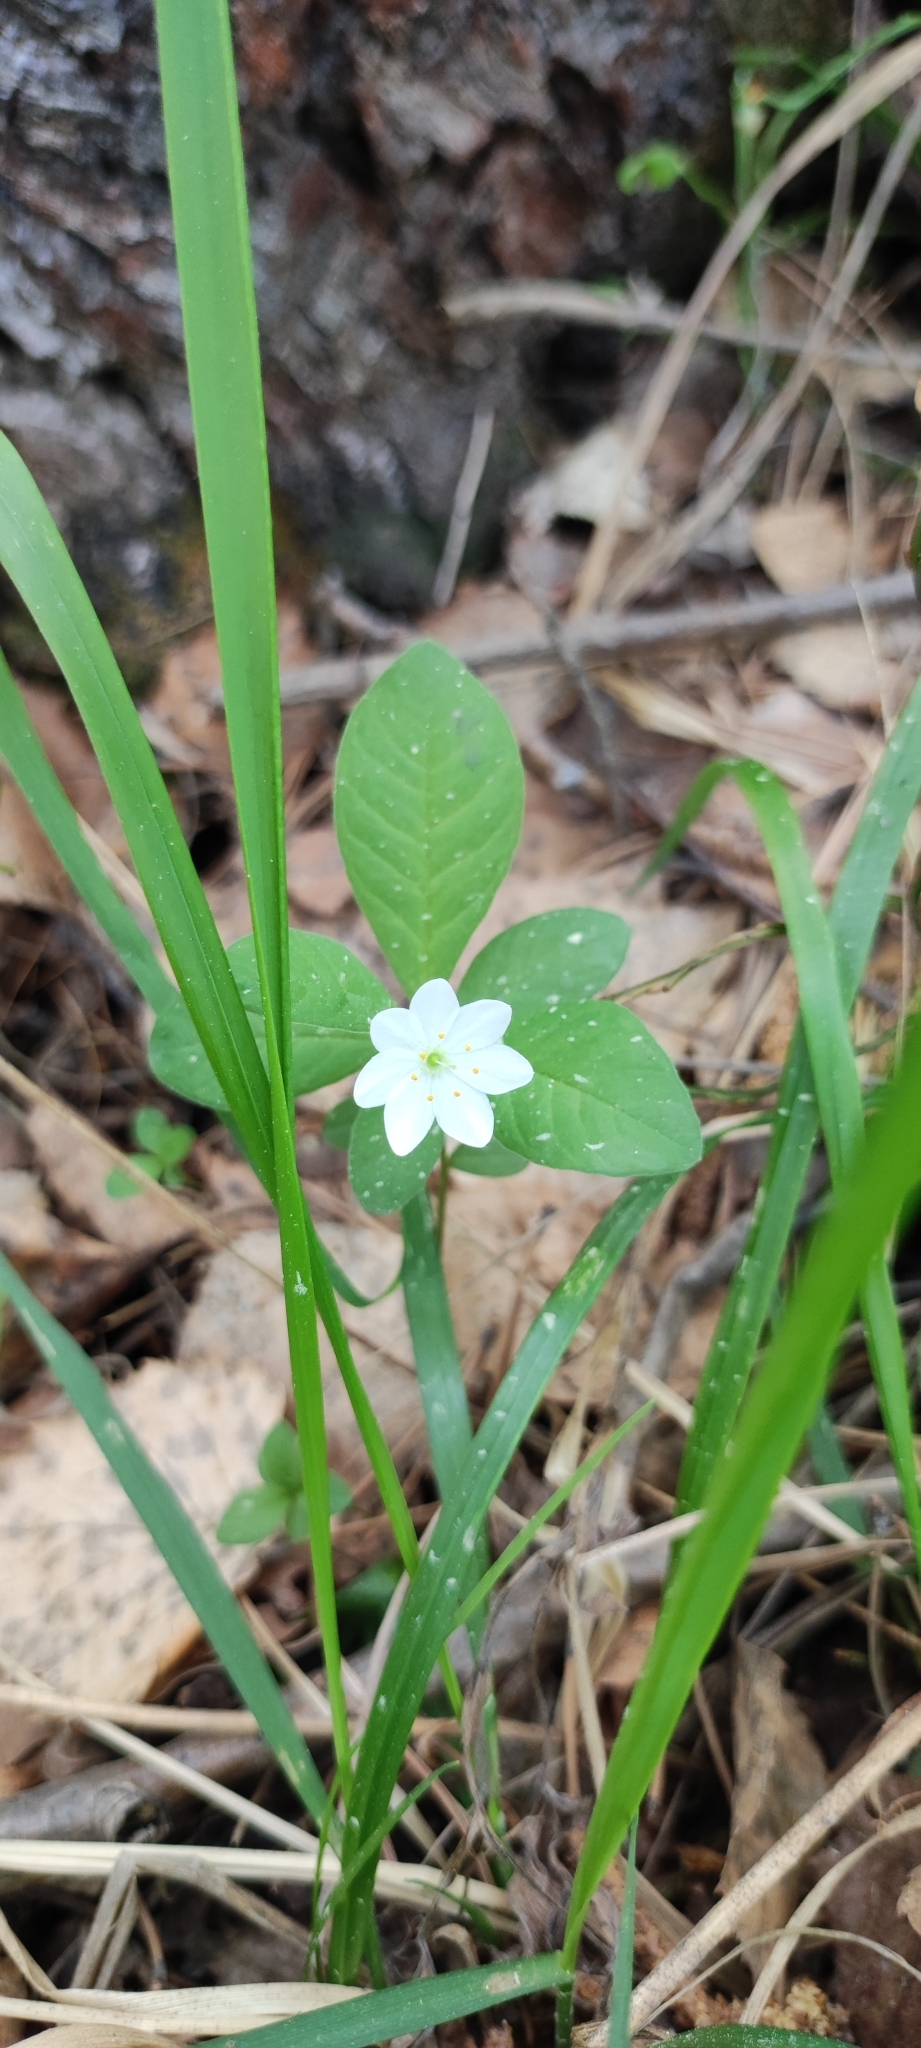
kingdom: Plantae
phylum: Tracheophyta
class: Magnoliopsida
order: Ericales
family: Primulaceae
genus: Lysimachia
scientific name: Lysimachia europaea
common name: Arctic starflower
